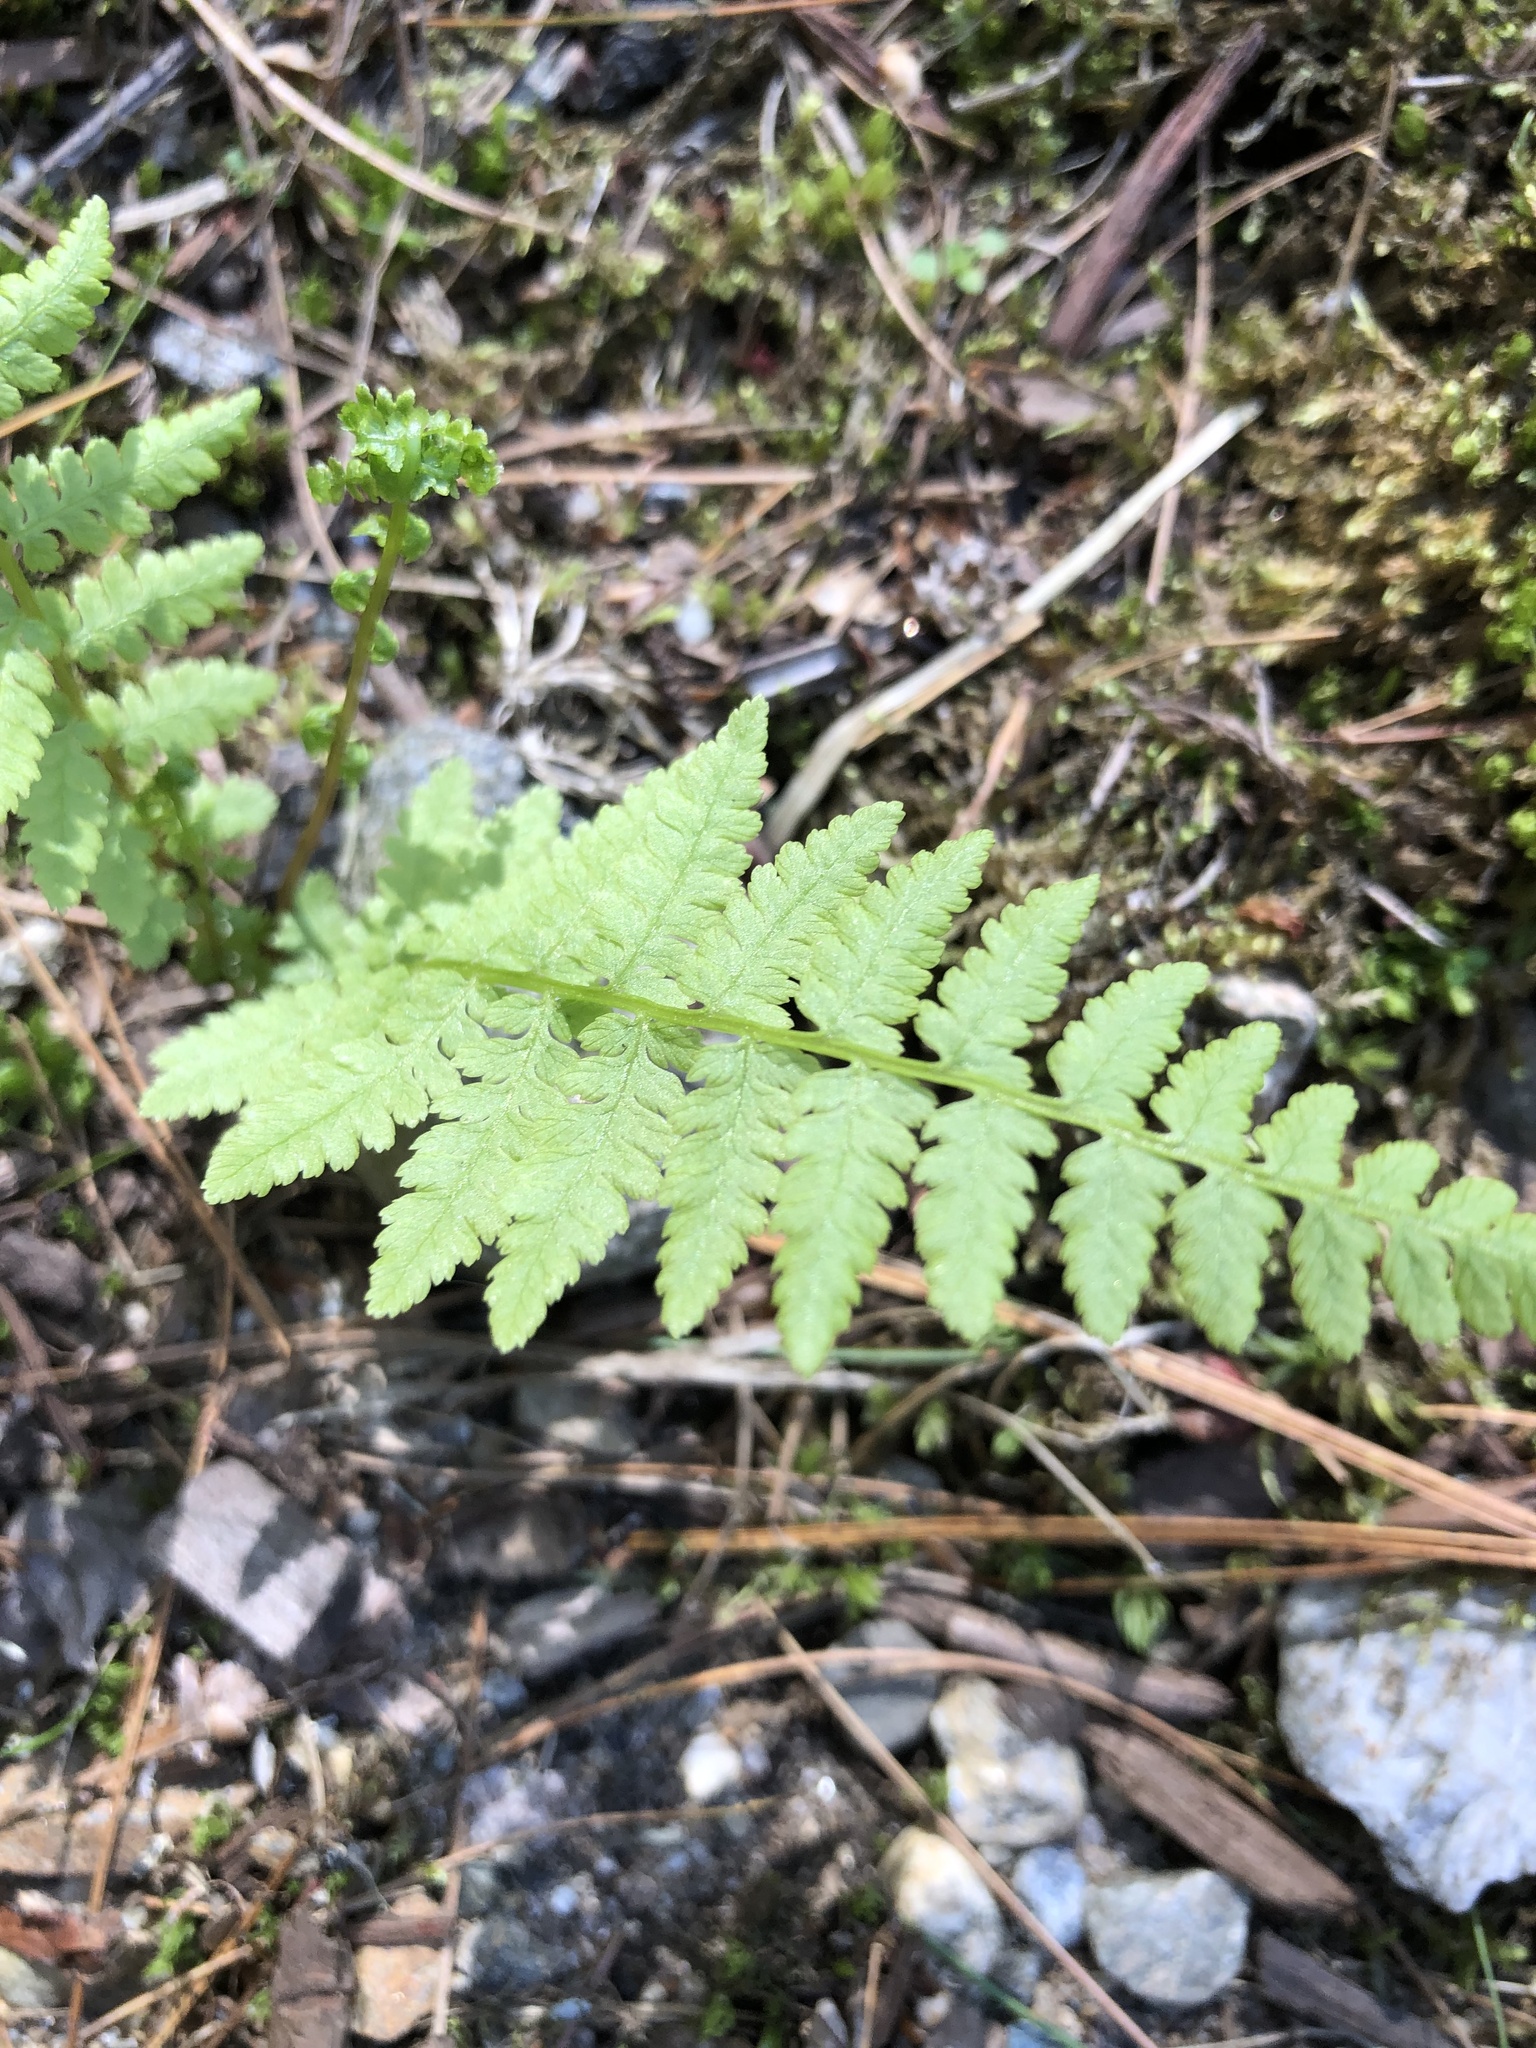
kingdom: Plantae
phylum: Tracheophyta
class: Polypodiopsida
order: Polypodiales
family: Athyriaceae
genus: Athyrium
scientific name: Athyrium angustum
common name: Northern lady fern
